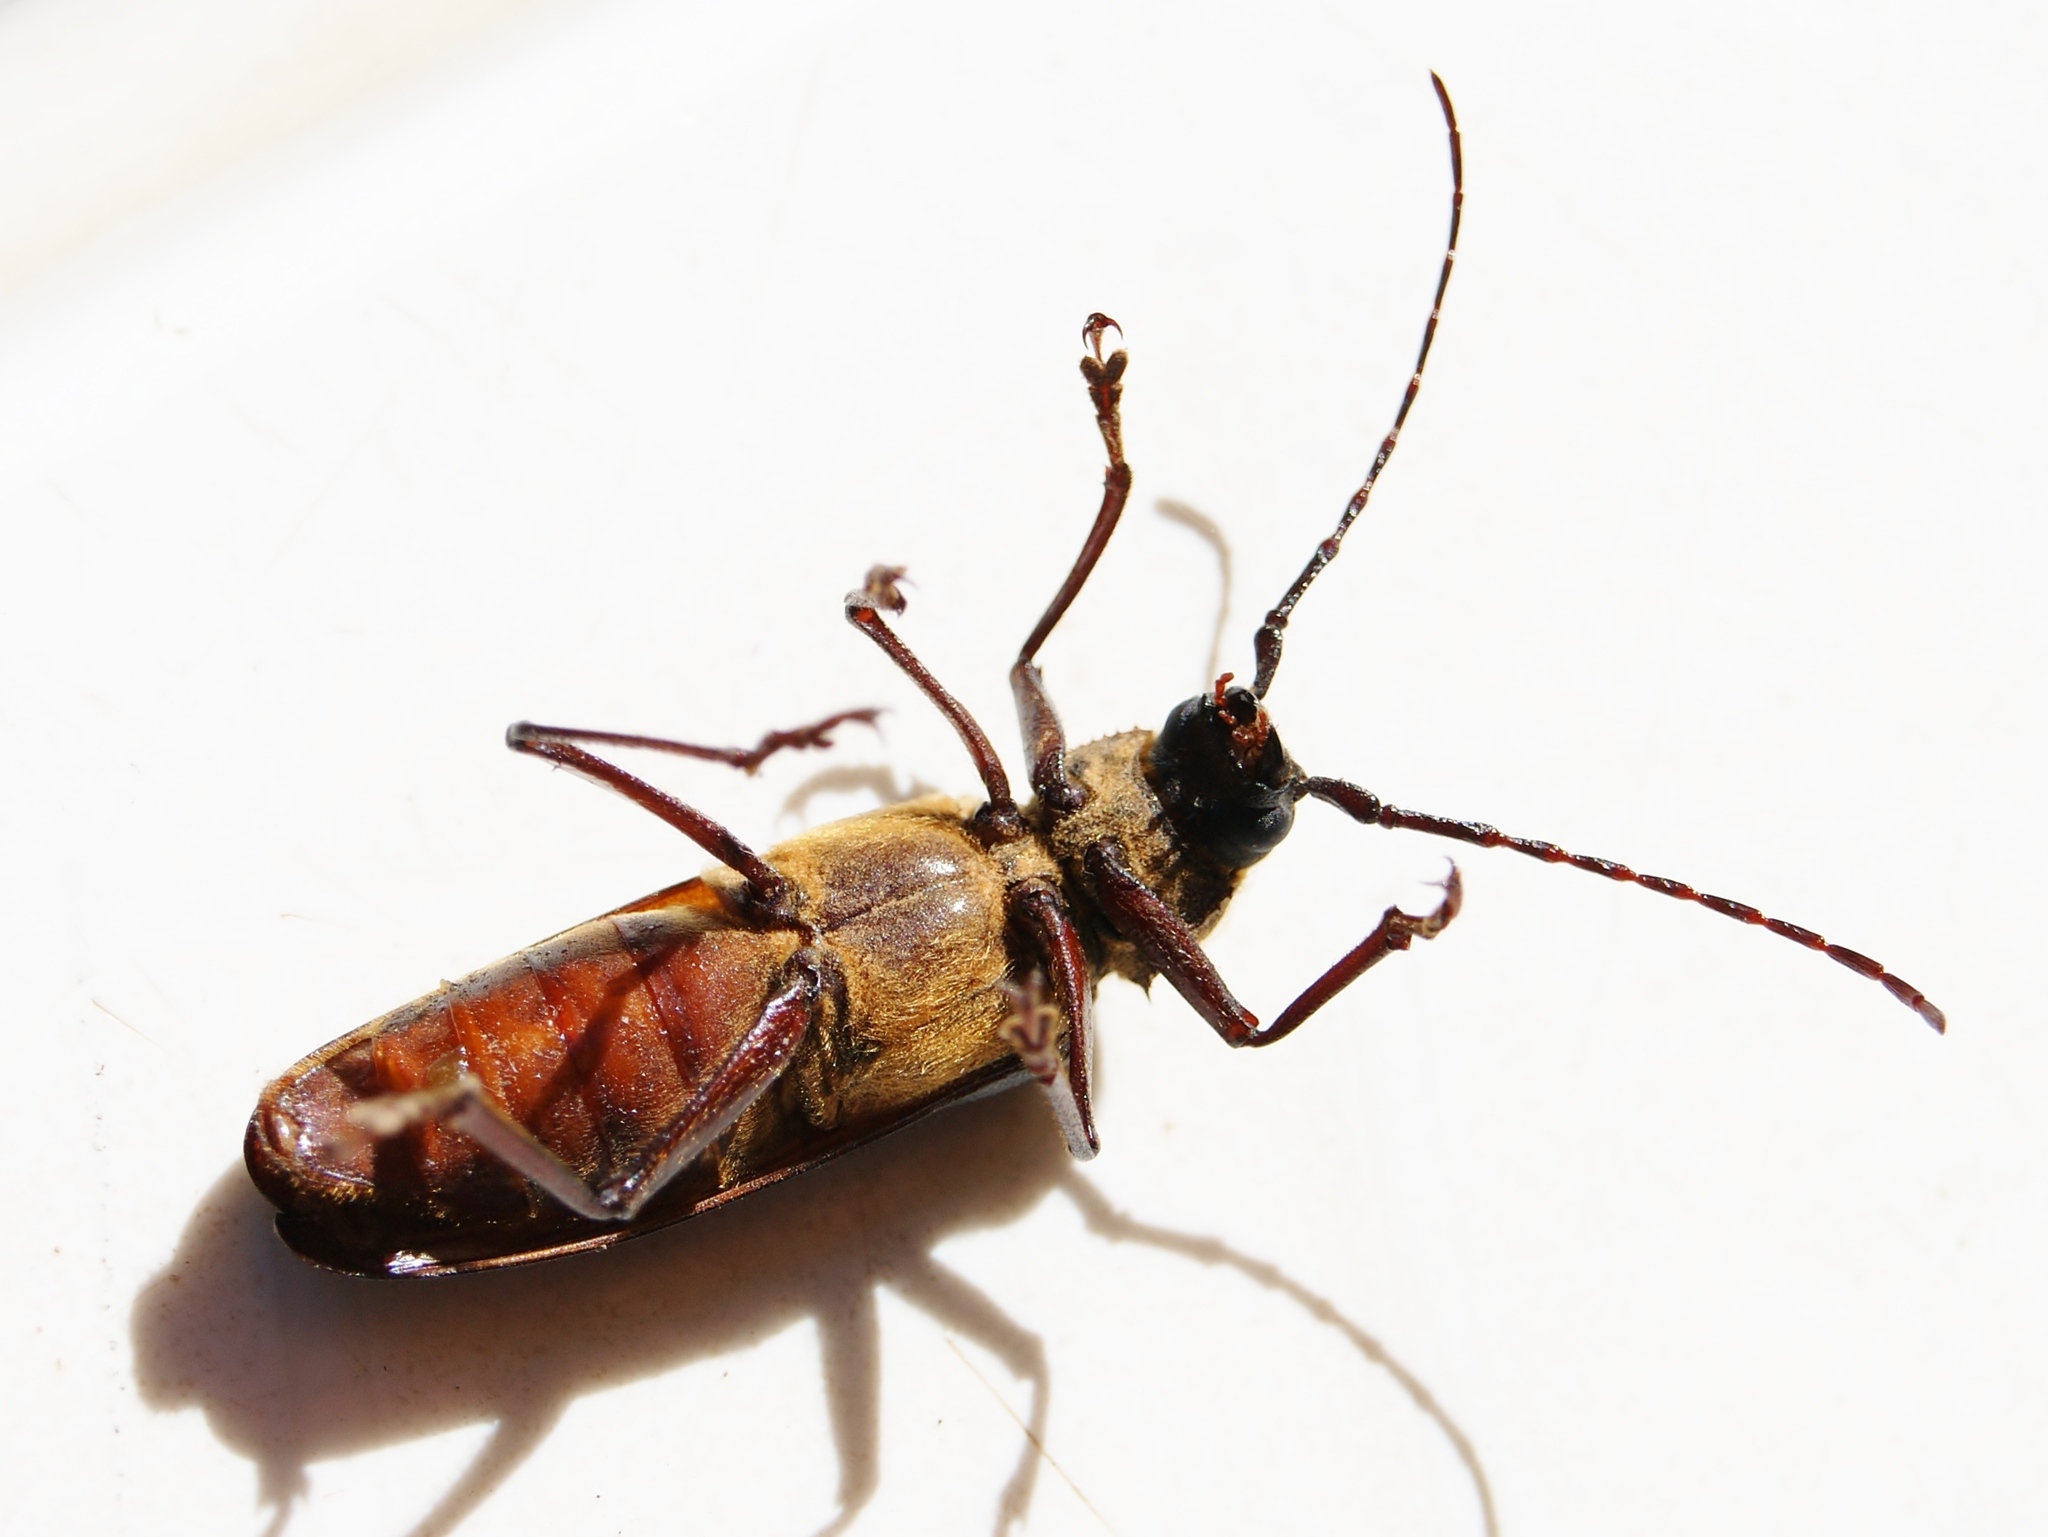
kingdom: Animalia
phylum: Arthropoda
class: Insecta
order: Coleoptera
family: Cerambycidae
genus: Prinobius
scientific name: Prinobius myardi
